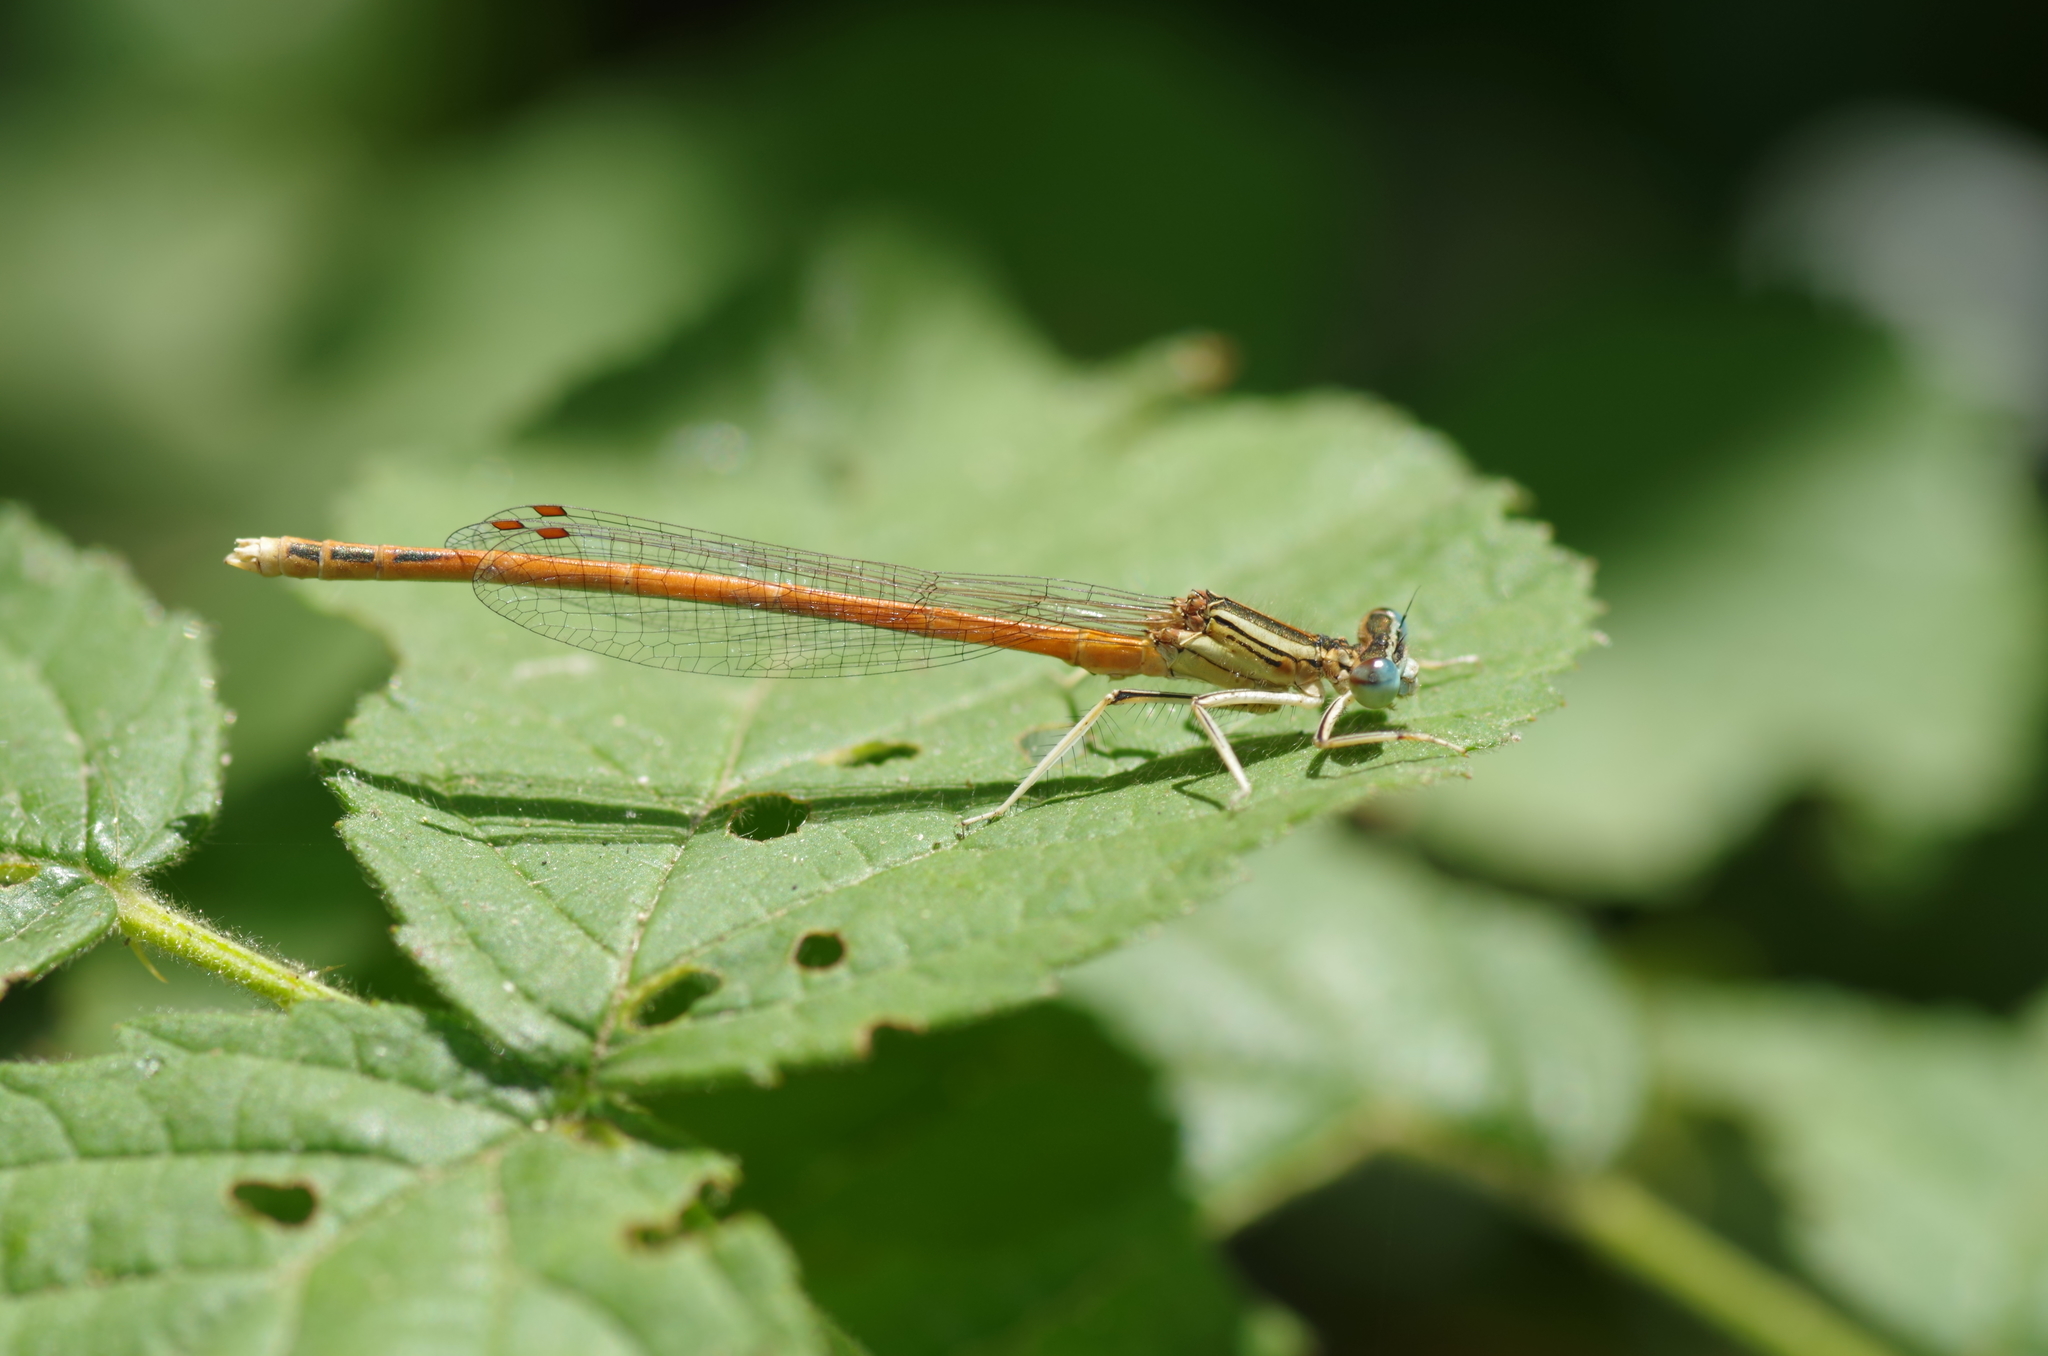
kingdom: Animalia
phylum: Arthropoda
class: Insecta
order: Odonata
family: Platycnemididae
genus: Platycnemis
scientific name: Platycnemis acutipennis
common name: Orange featherleg
